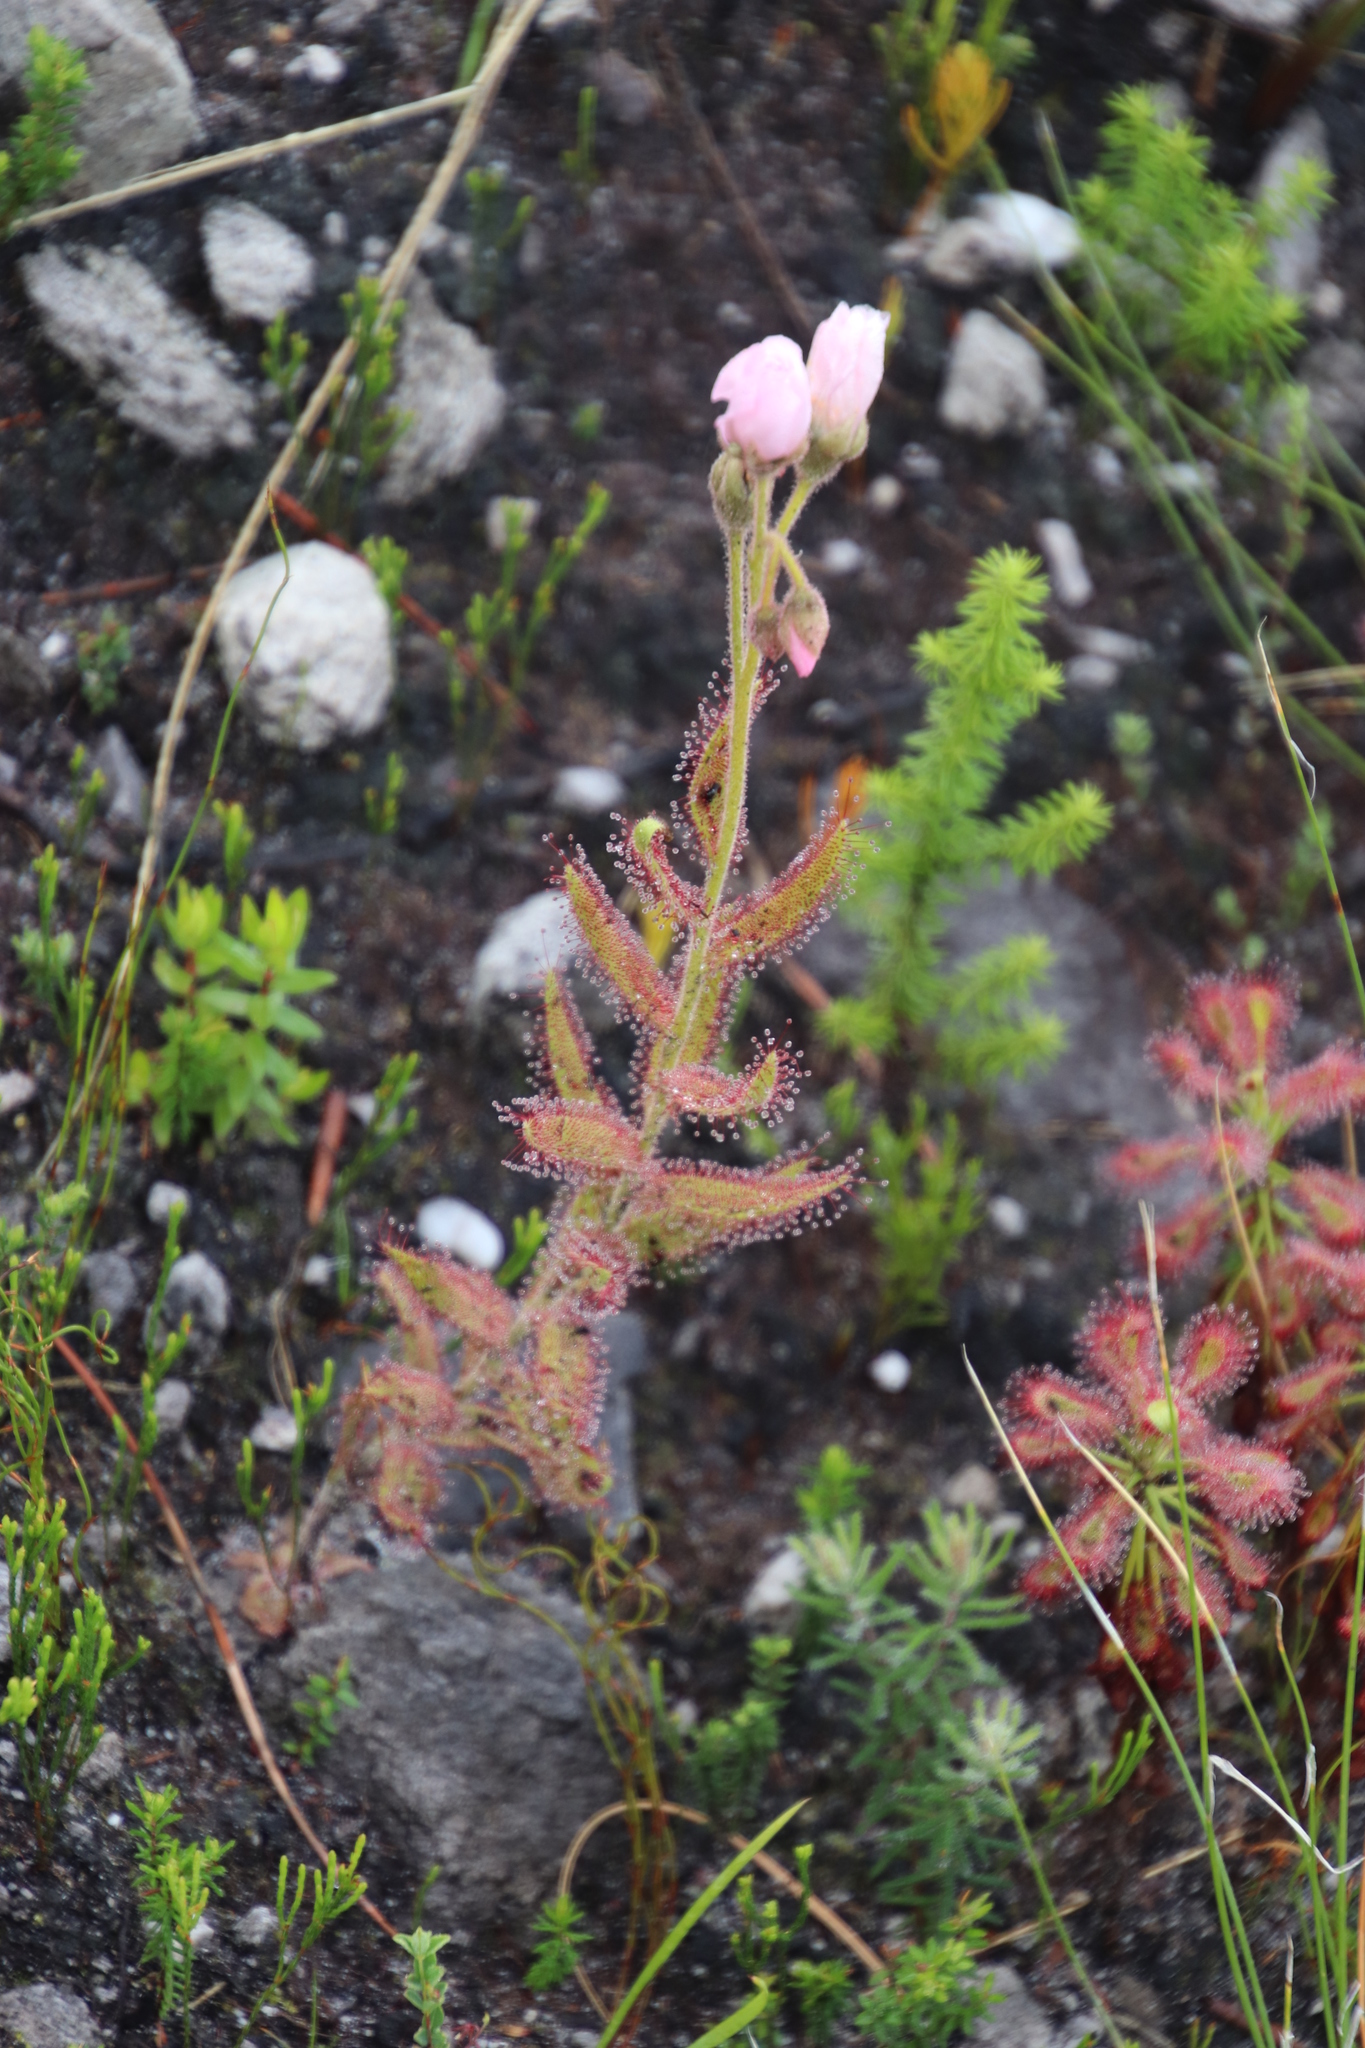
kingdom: Plantae
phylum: Tracheophyta
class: Magnoliopsida
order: Caryophyllales
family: Droseraceae
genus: Drosera
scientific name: Drosera cistiflora
